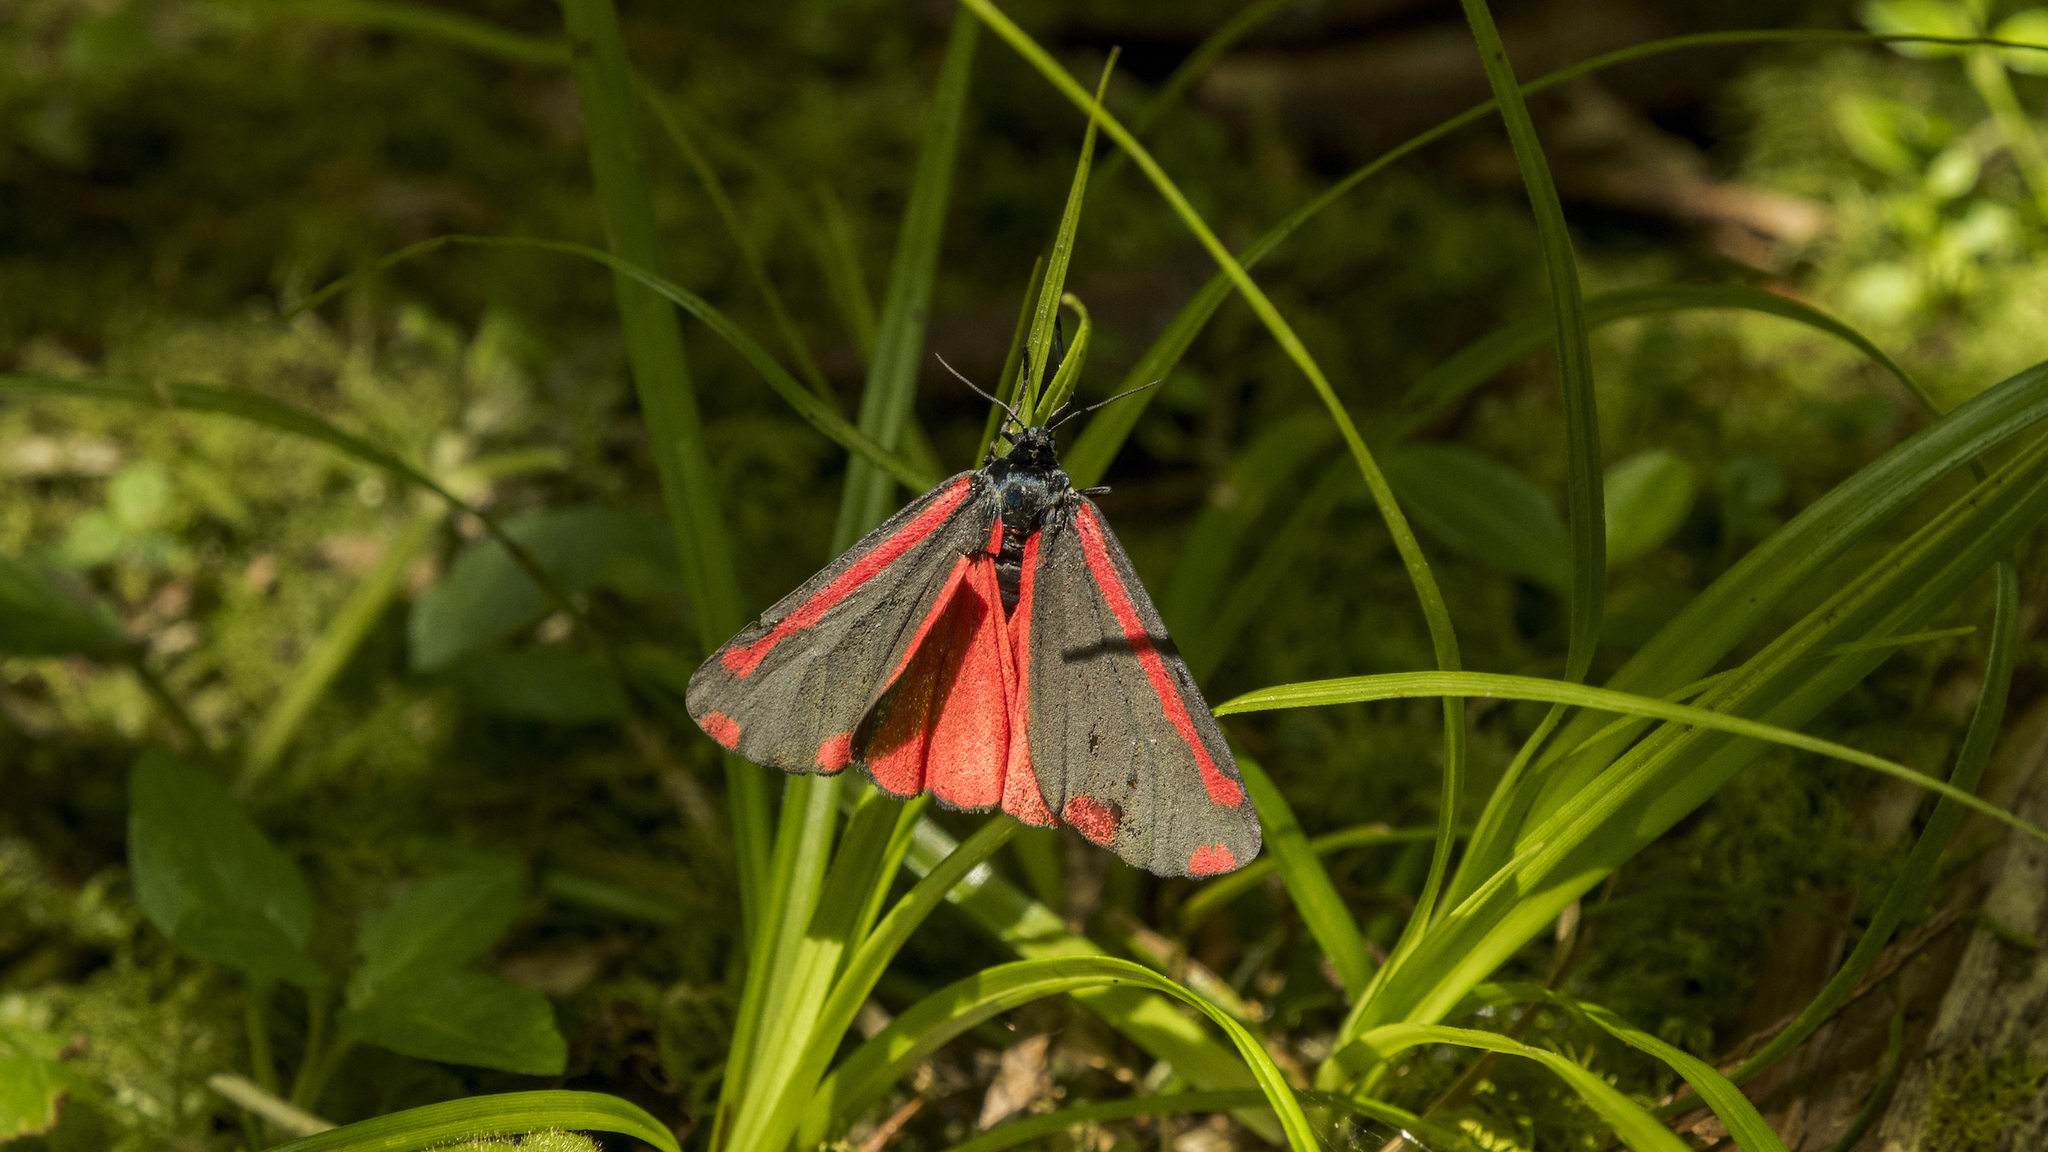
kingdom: Animalia
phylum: Arthropoda
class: Insecta
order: Lepidoptera
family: Erebidae
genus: Tyria
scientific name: Tyria jacobaeae
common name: Cinnabar
